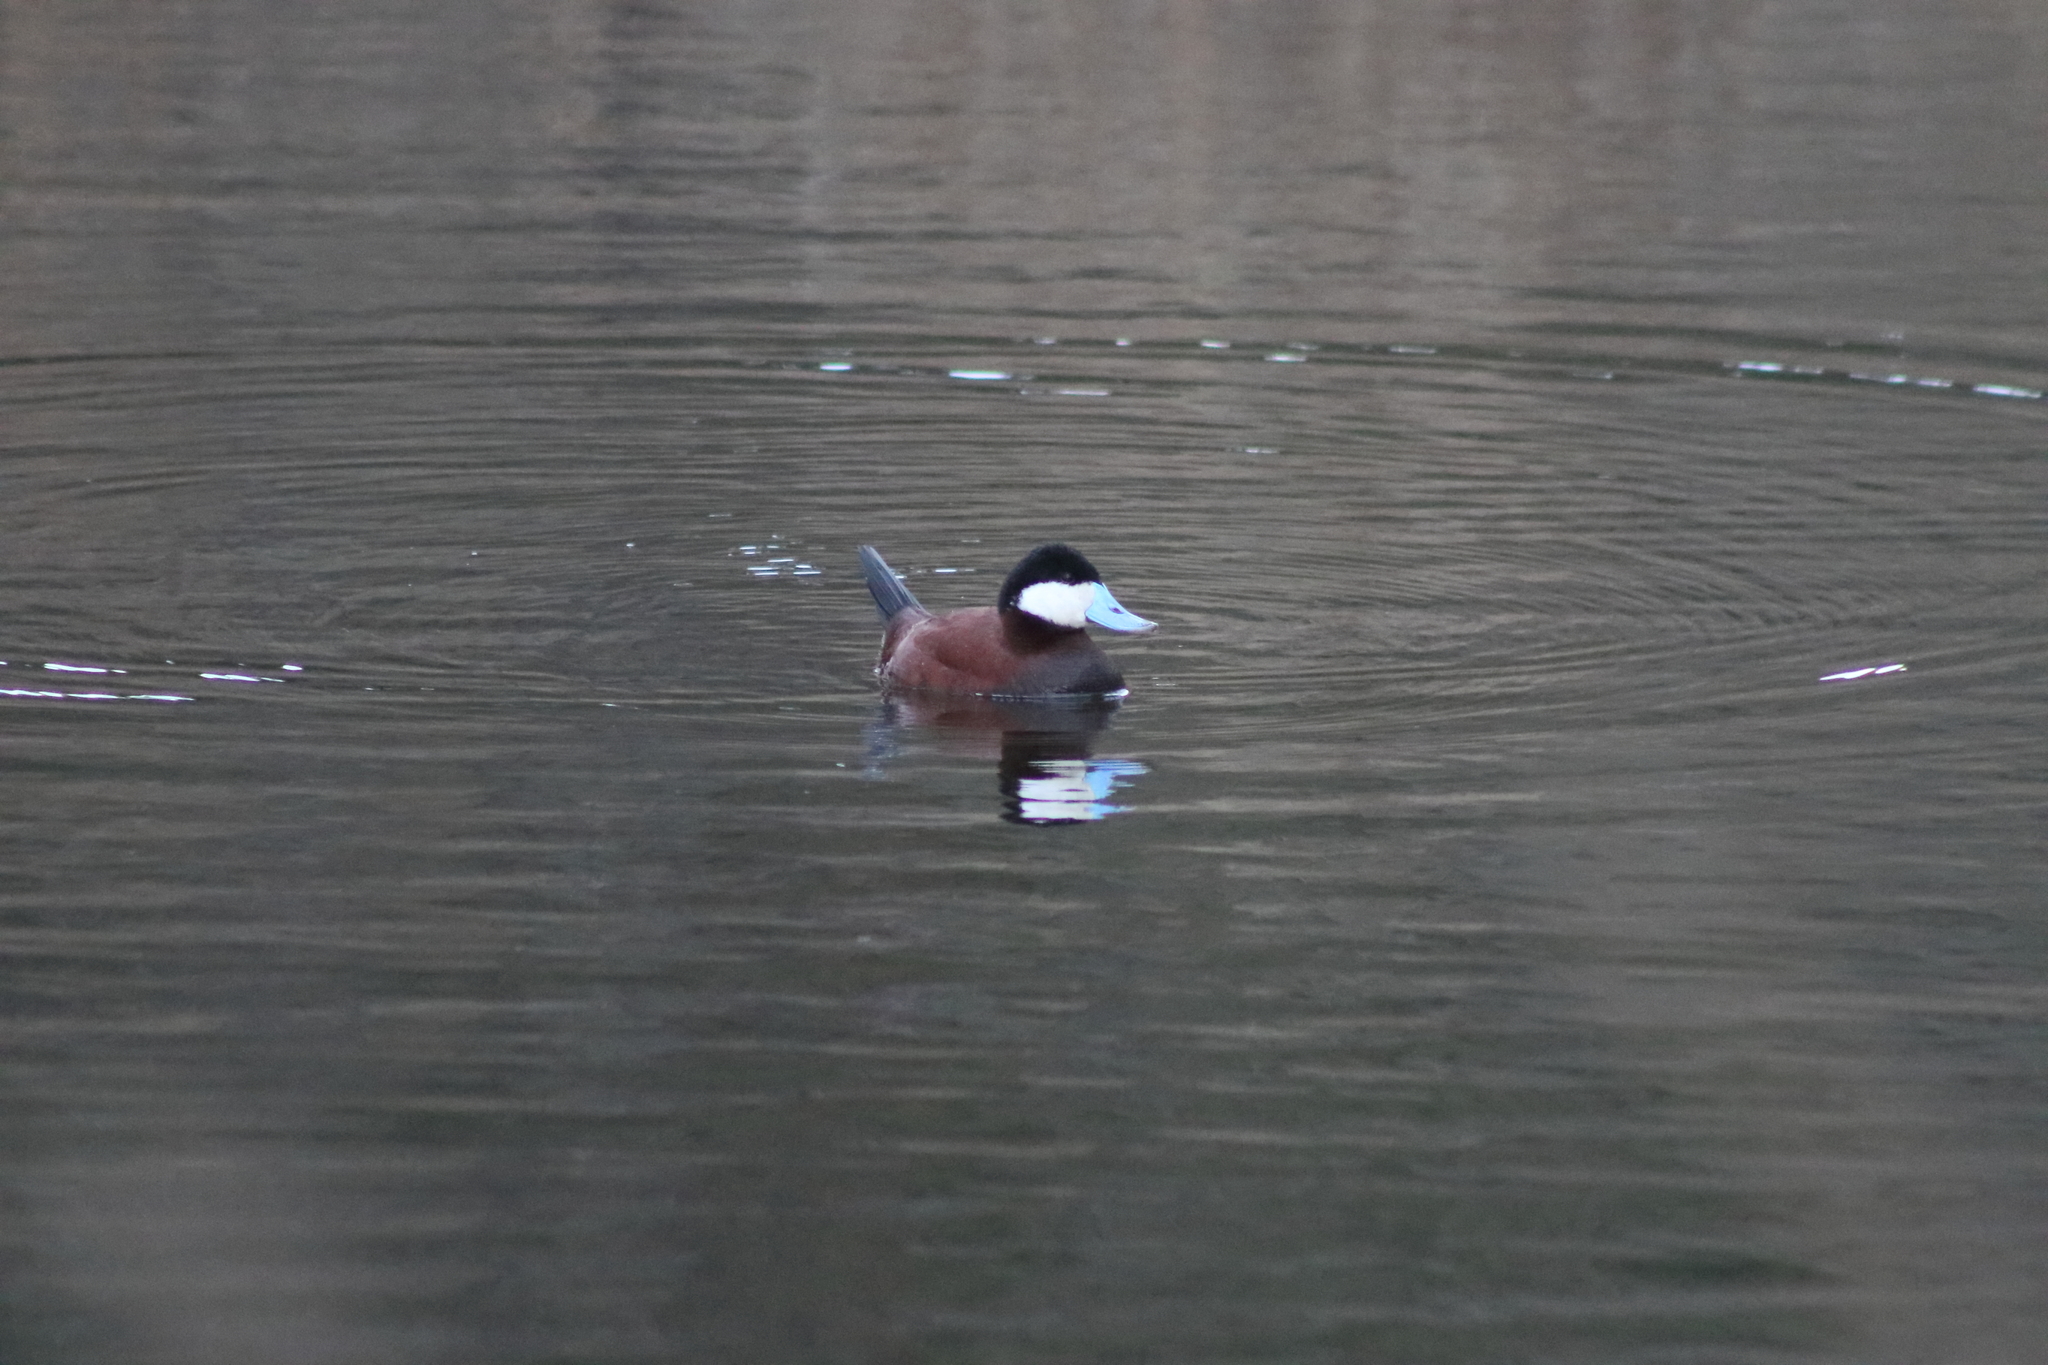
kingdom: Animalia
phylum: Chordata
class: Aves
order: Anseriformes
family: Anatidae
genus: Oxyura
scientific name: Oxyura jamaicensis
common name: Ruddy duck
